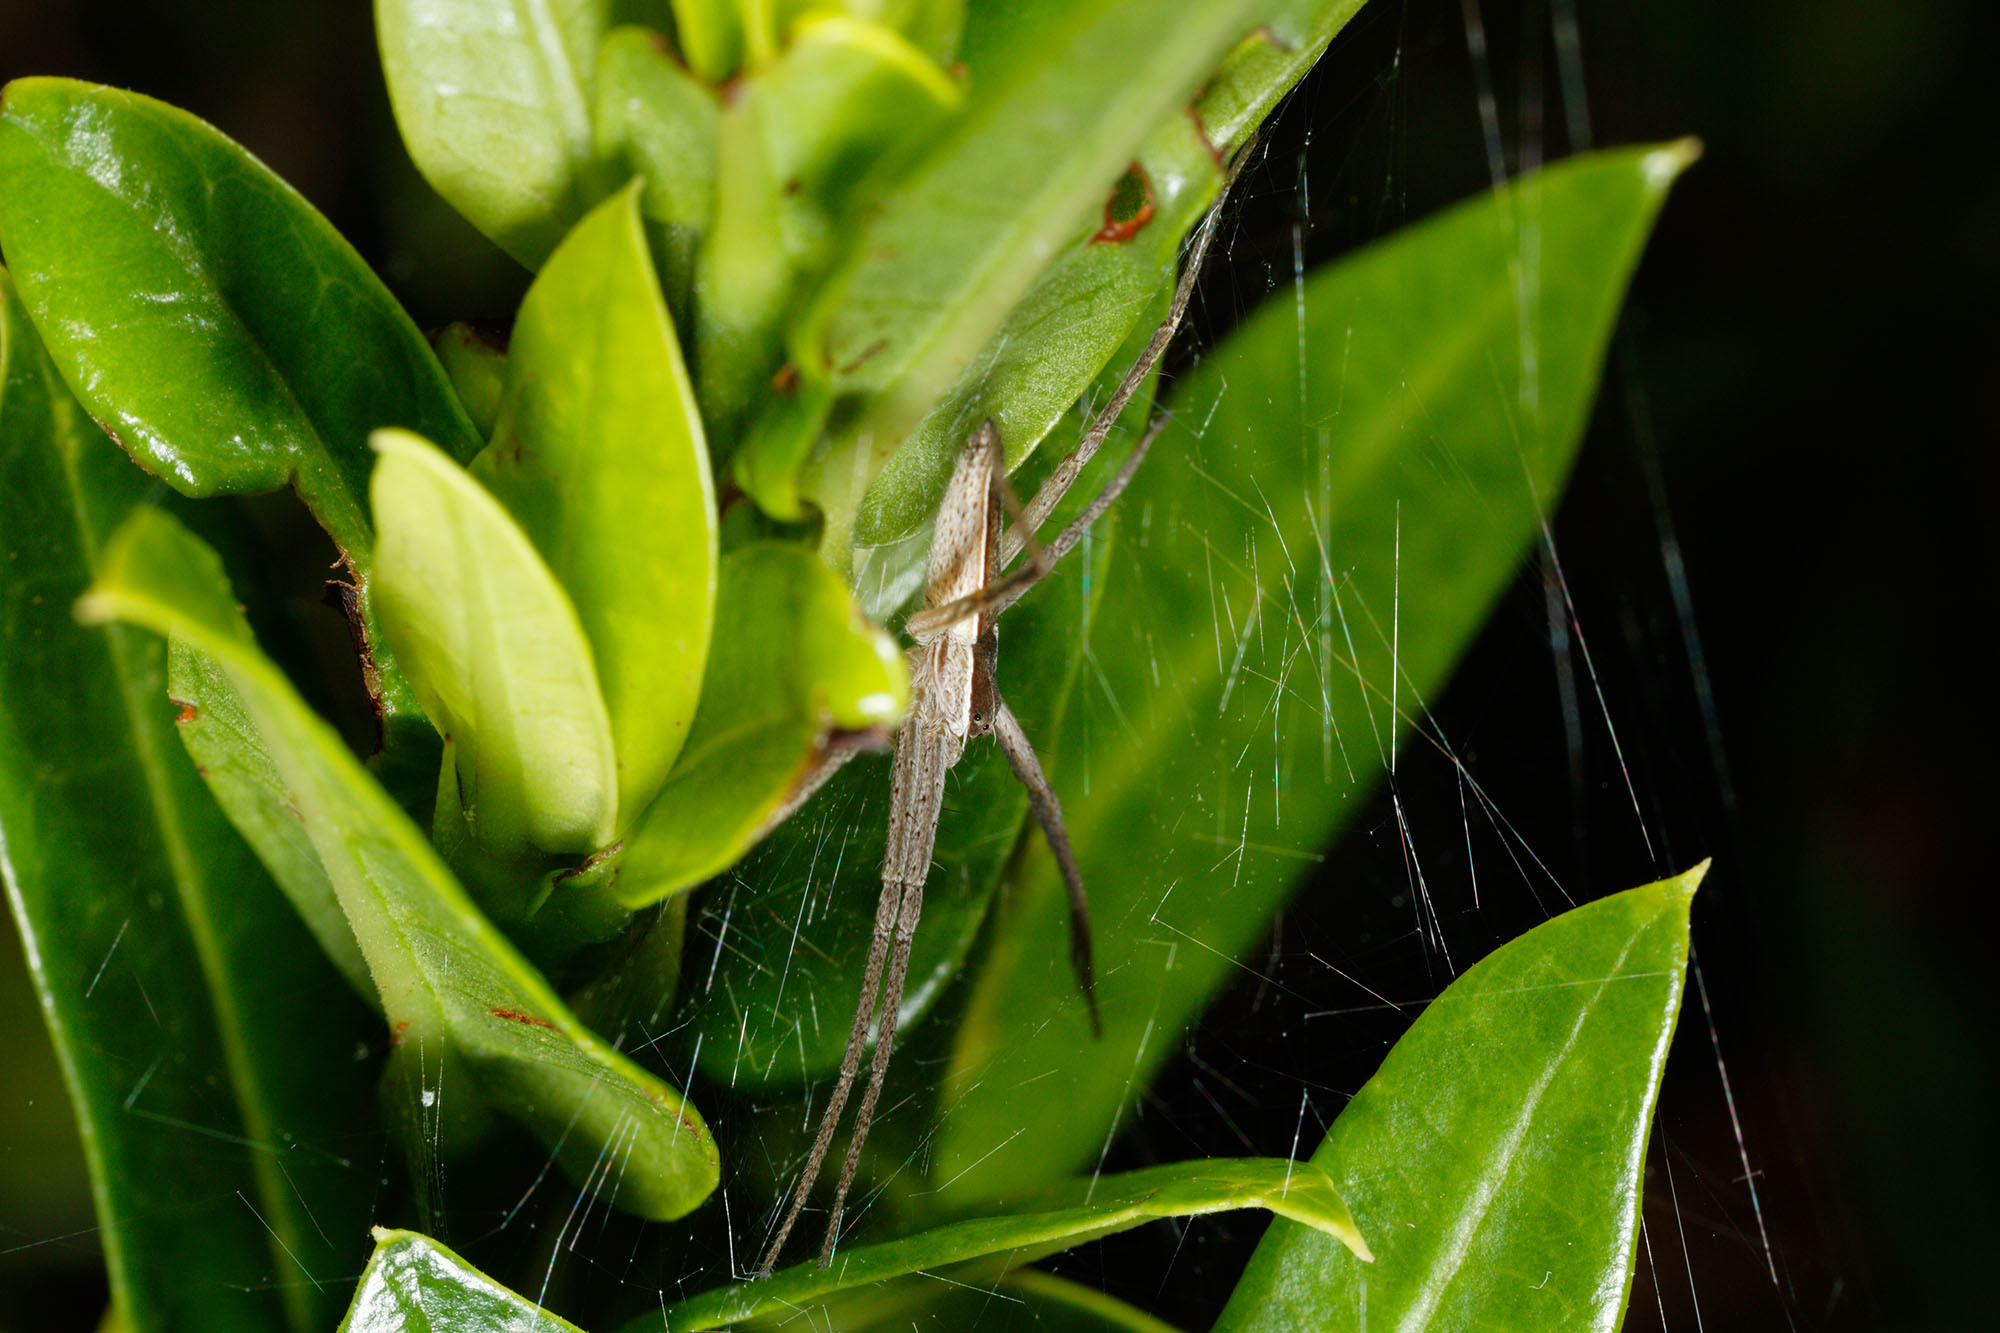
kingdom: Animalia
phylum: Arthropoda
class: Arachnida
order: Araneae
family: Pisauridae
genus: Perenethis
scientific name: Perenethis venusta
